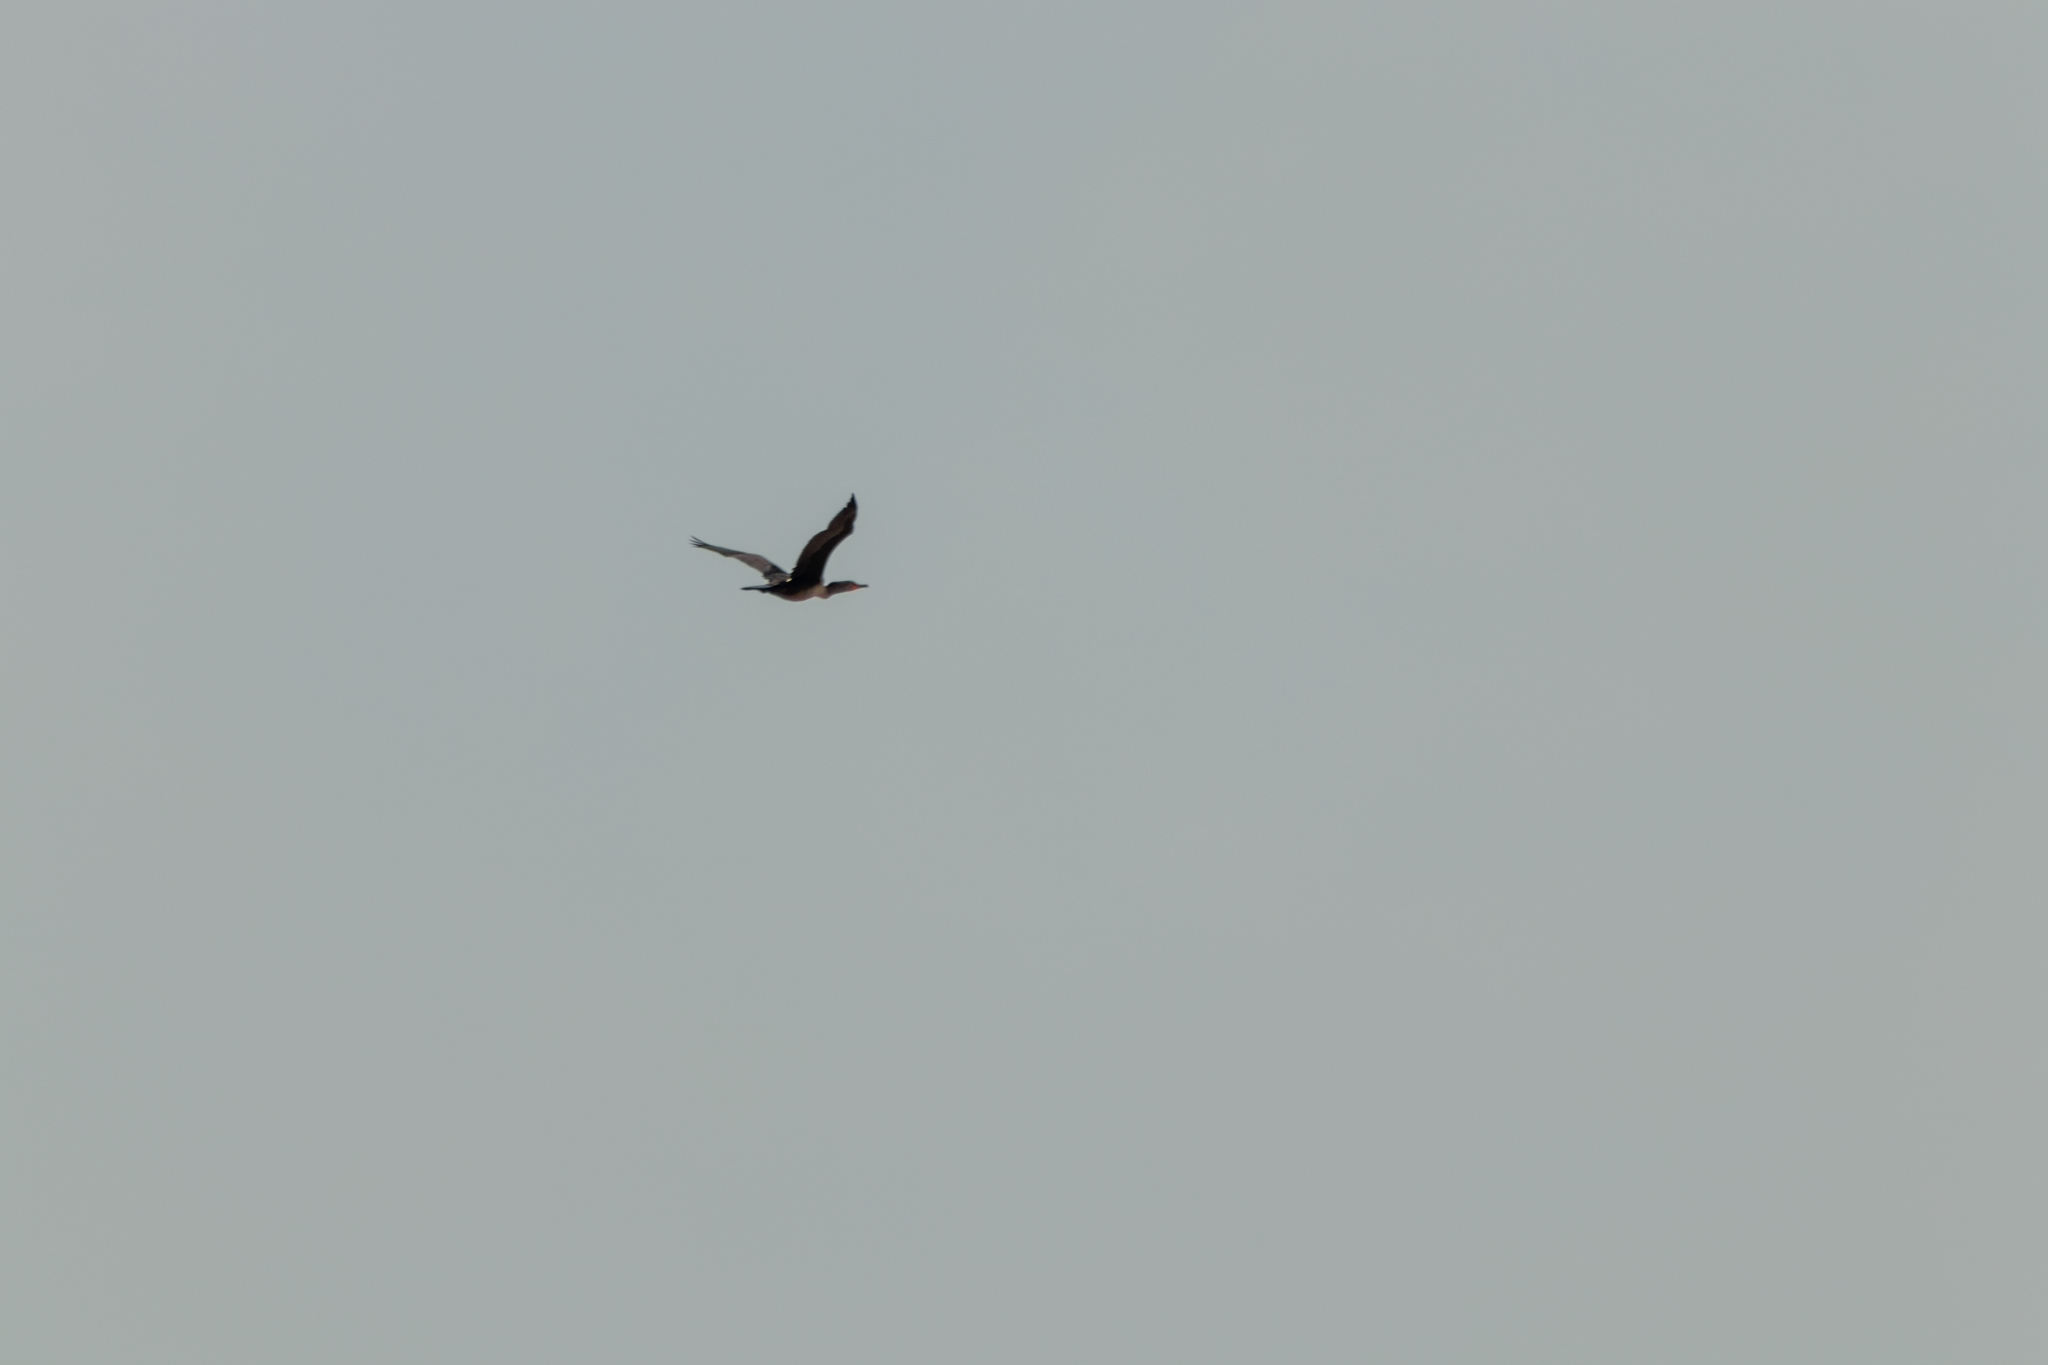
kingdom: Animalia
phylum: Chordata
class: Aves
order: Suliformes
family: Phalacrocoracidae
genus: Phalacrocorax
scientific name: Phalacrocorax auritus
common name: Double-crested cormorant
